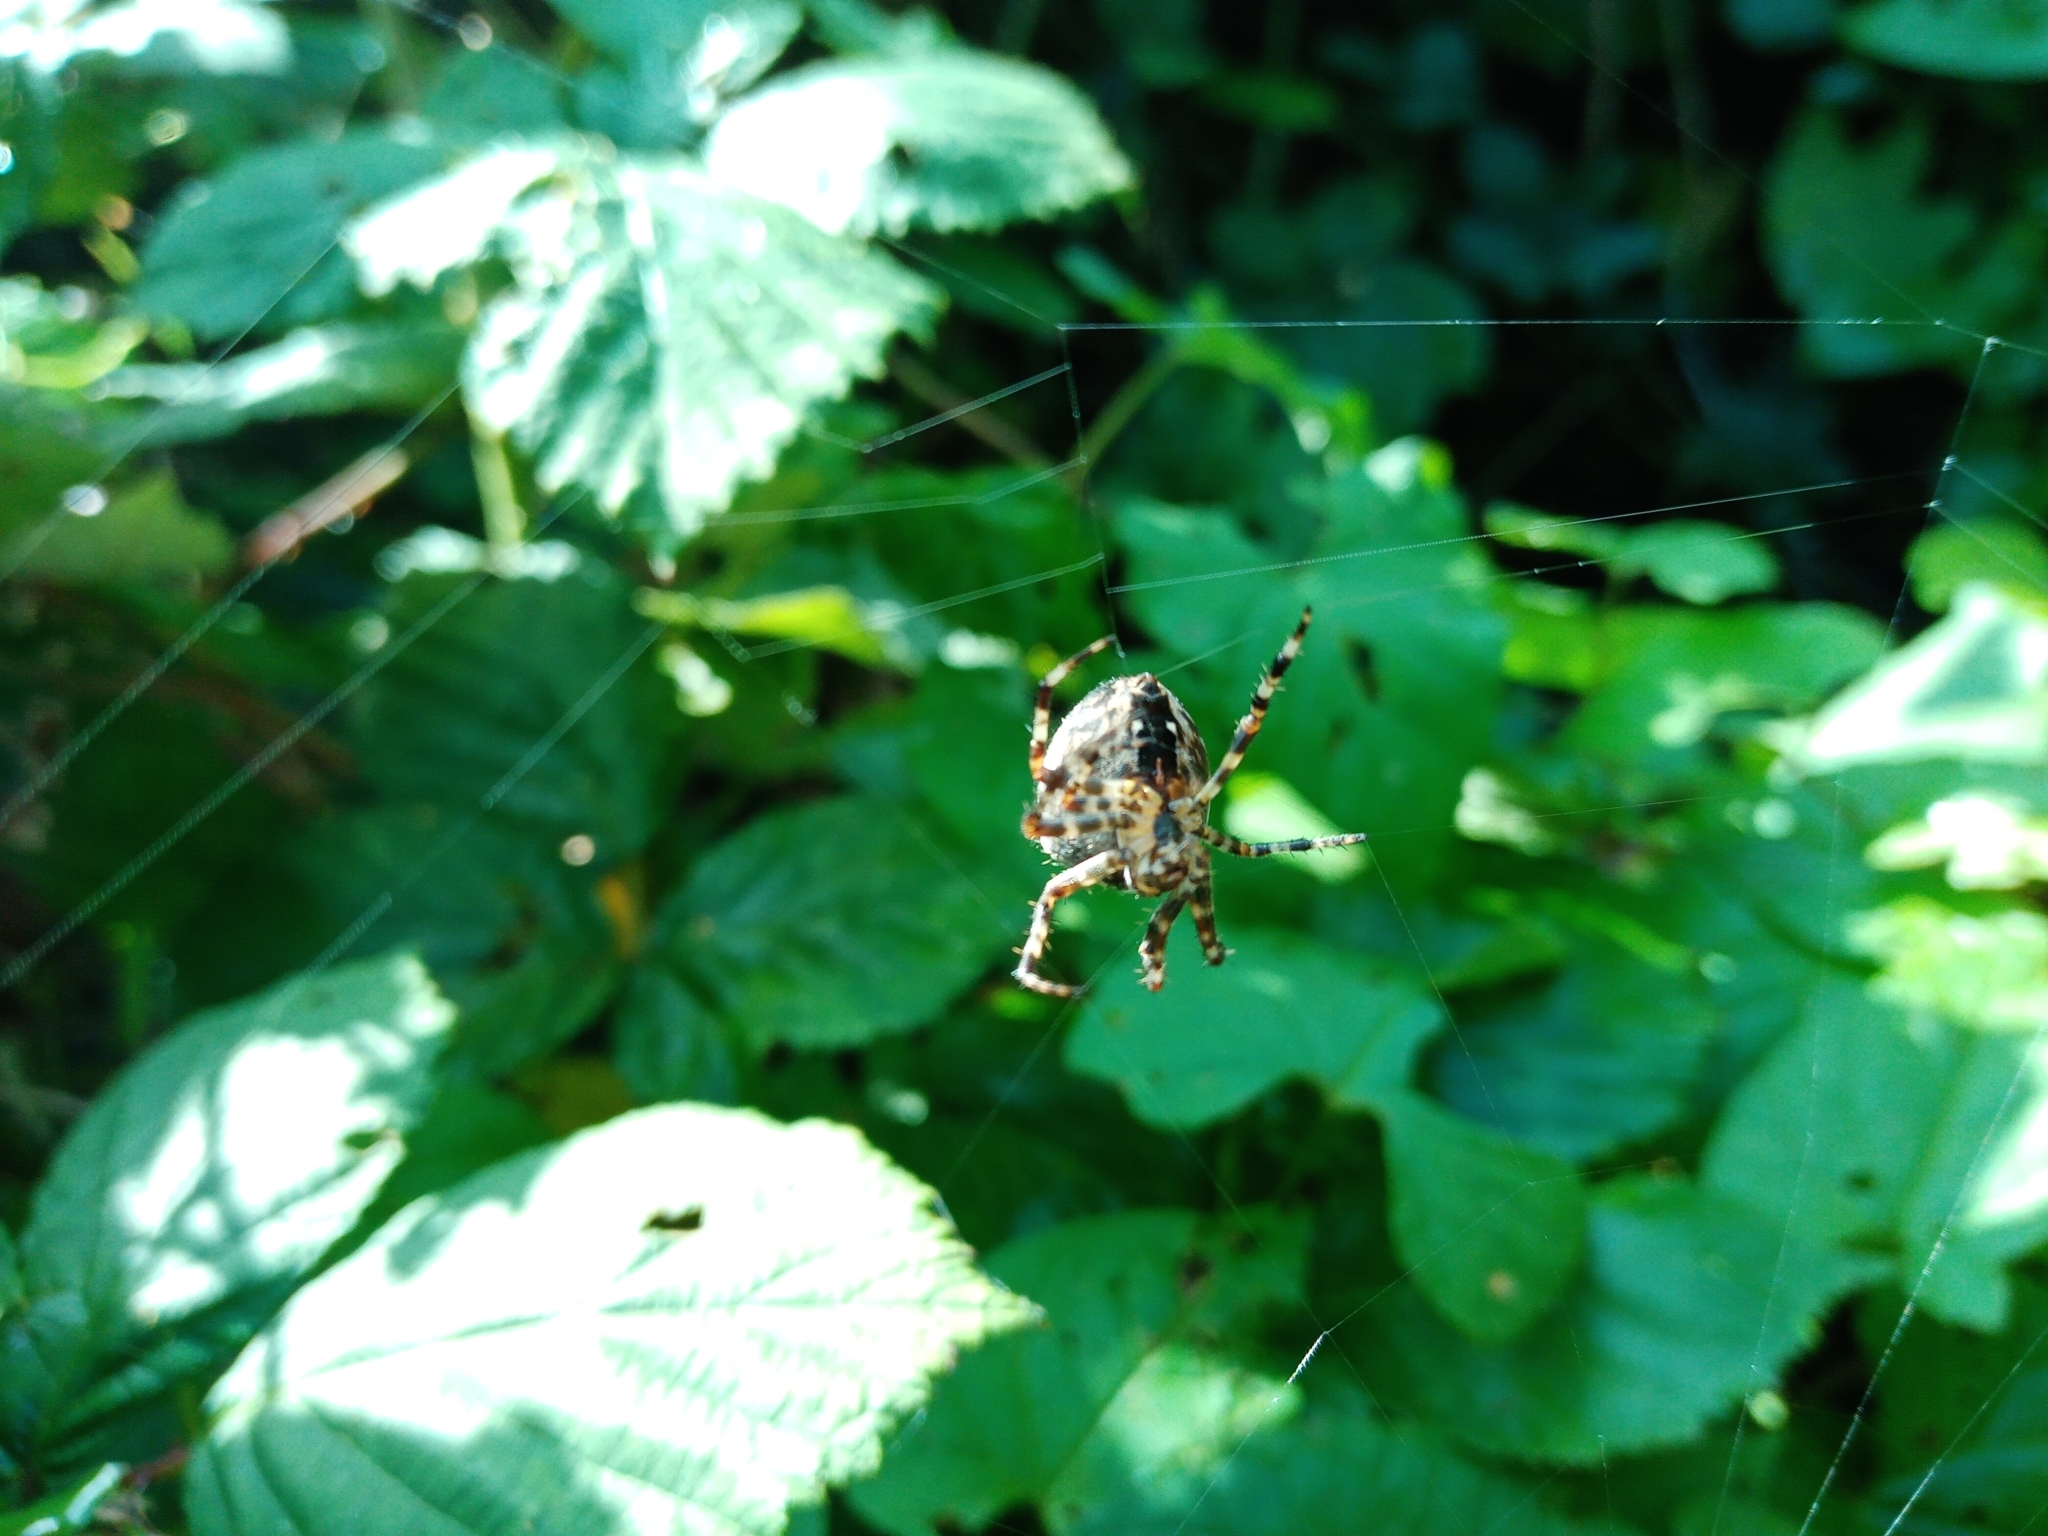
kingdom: Animalia
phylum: Arthropoda
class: Arachnida
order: Araneae
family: Araneidae
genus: Araneus
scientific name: Araneus diadematus
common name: Cross orbweaver
